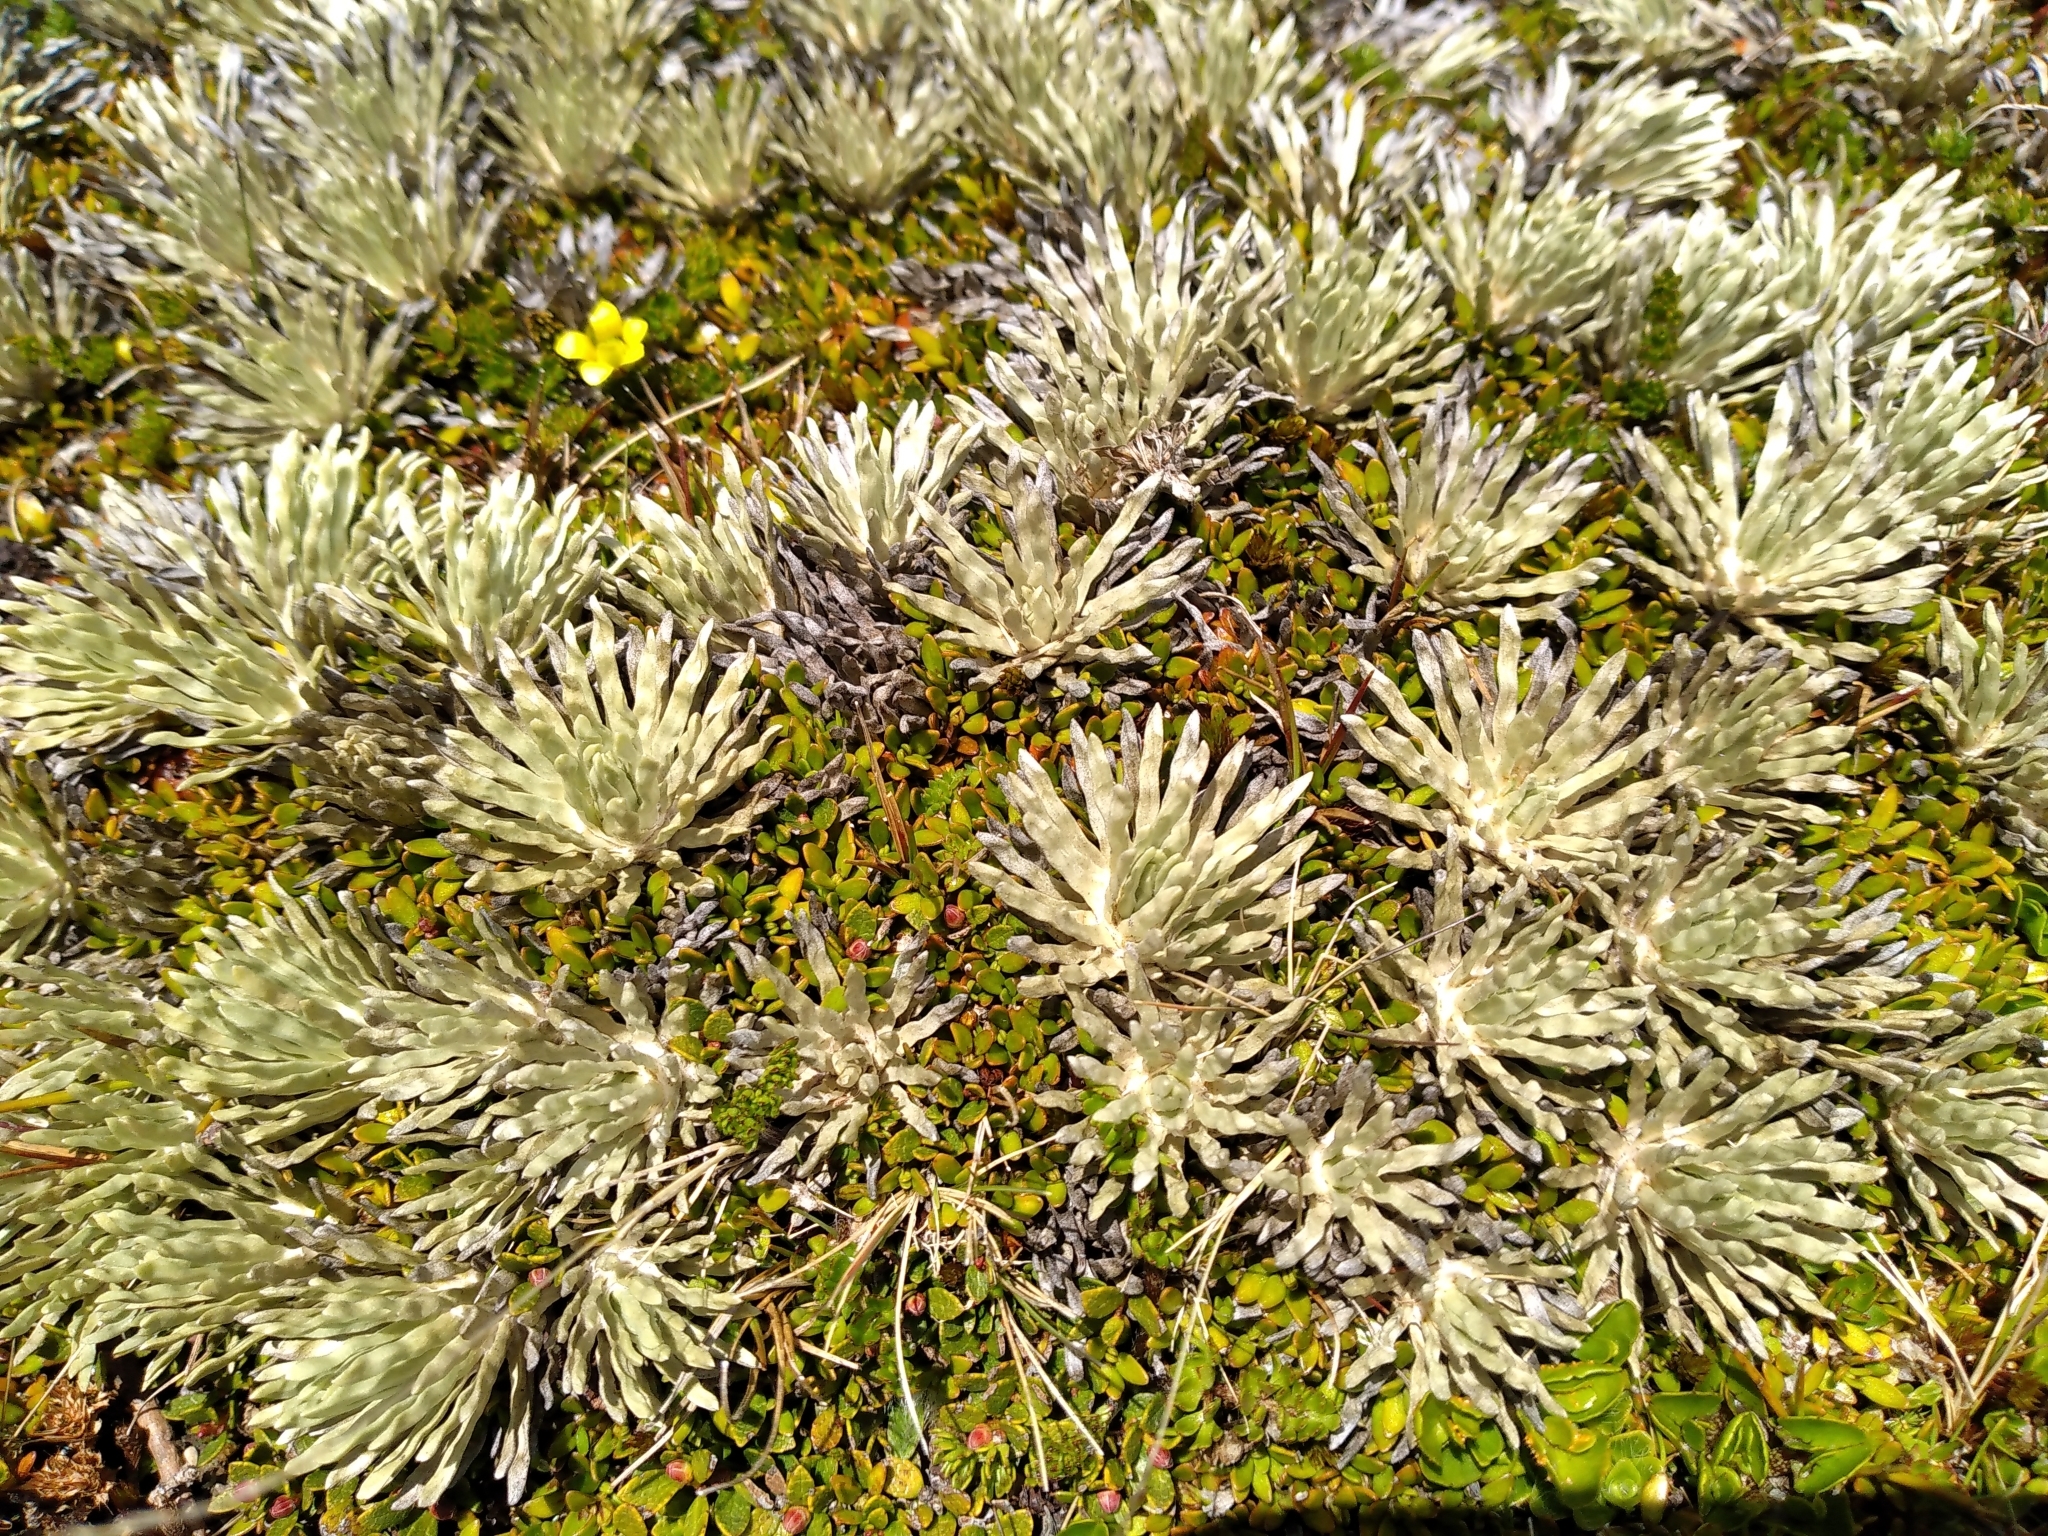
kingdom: Plantae
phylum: Tracheophyta
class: Magnoliopsida
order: Asterales
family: Asteraceae
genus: Celmisia
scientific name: Celmisia sessiliflora
